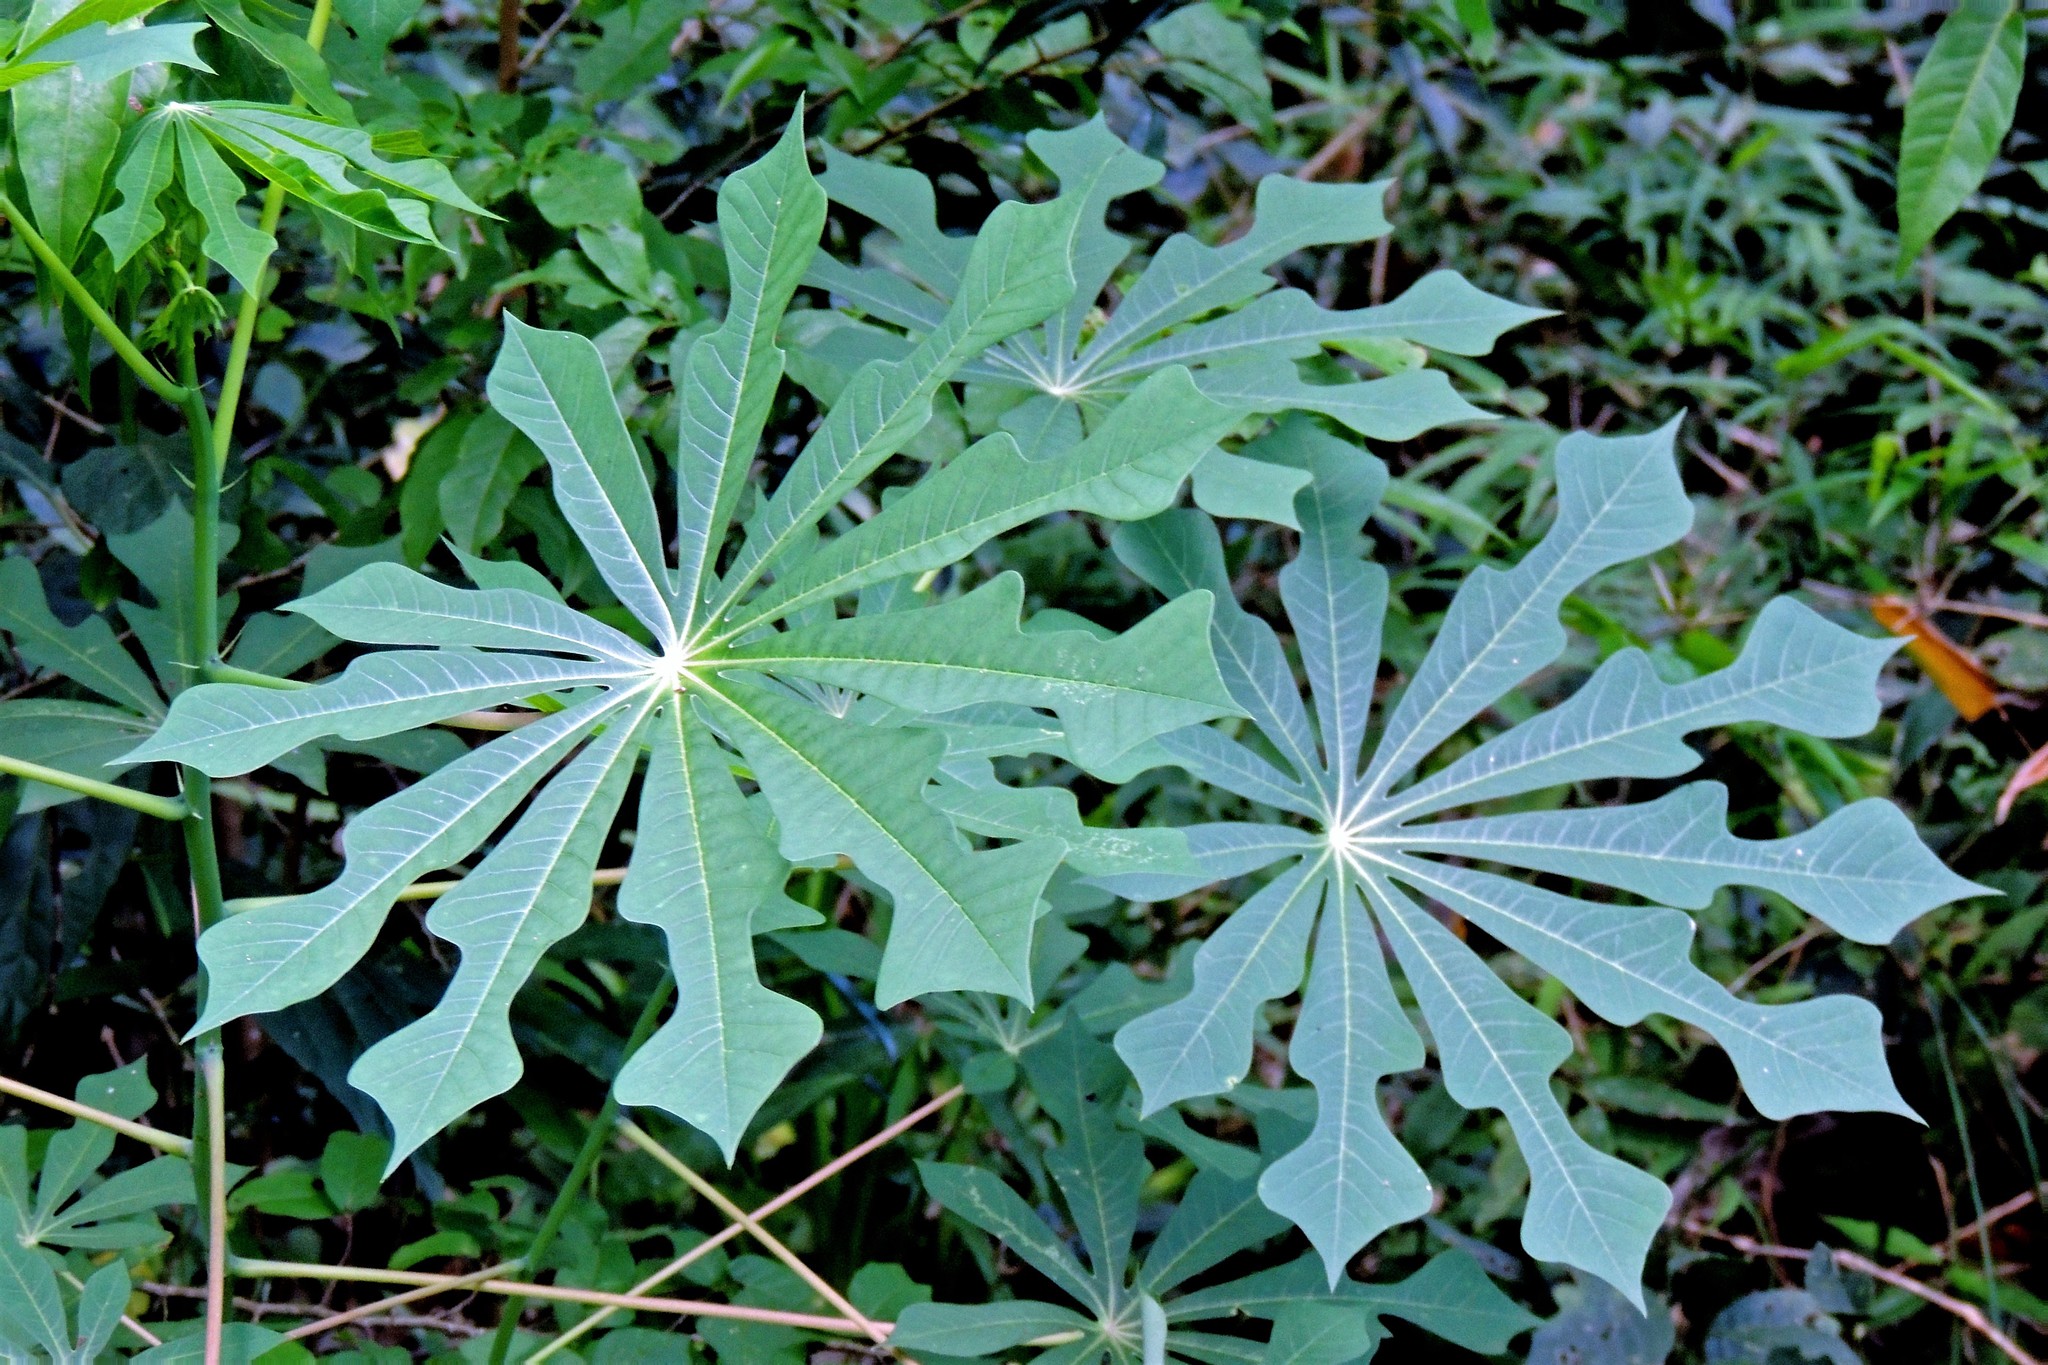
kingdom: Plantae
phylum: Tracheophyta
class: Magnoliopsida
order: Malpighiales
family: Euphorbiaceae
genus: Manihot
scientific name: Manihot grahamii
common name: Graham's manihot
